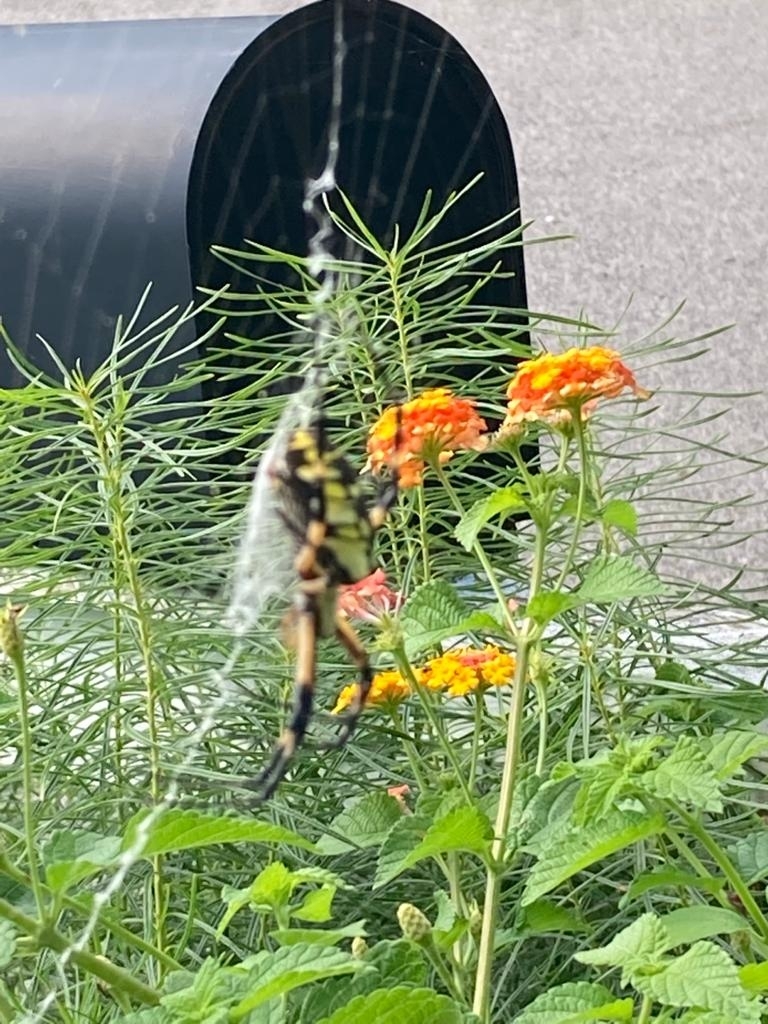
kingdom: Animalia
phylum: Arthropoda
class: Arachnida
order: Araneae
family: Araneidae
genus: Argiope
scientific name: Argiope aurantia
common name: Orb weavers
